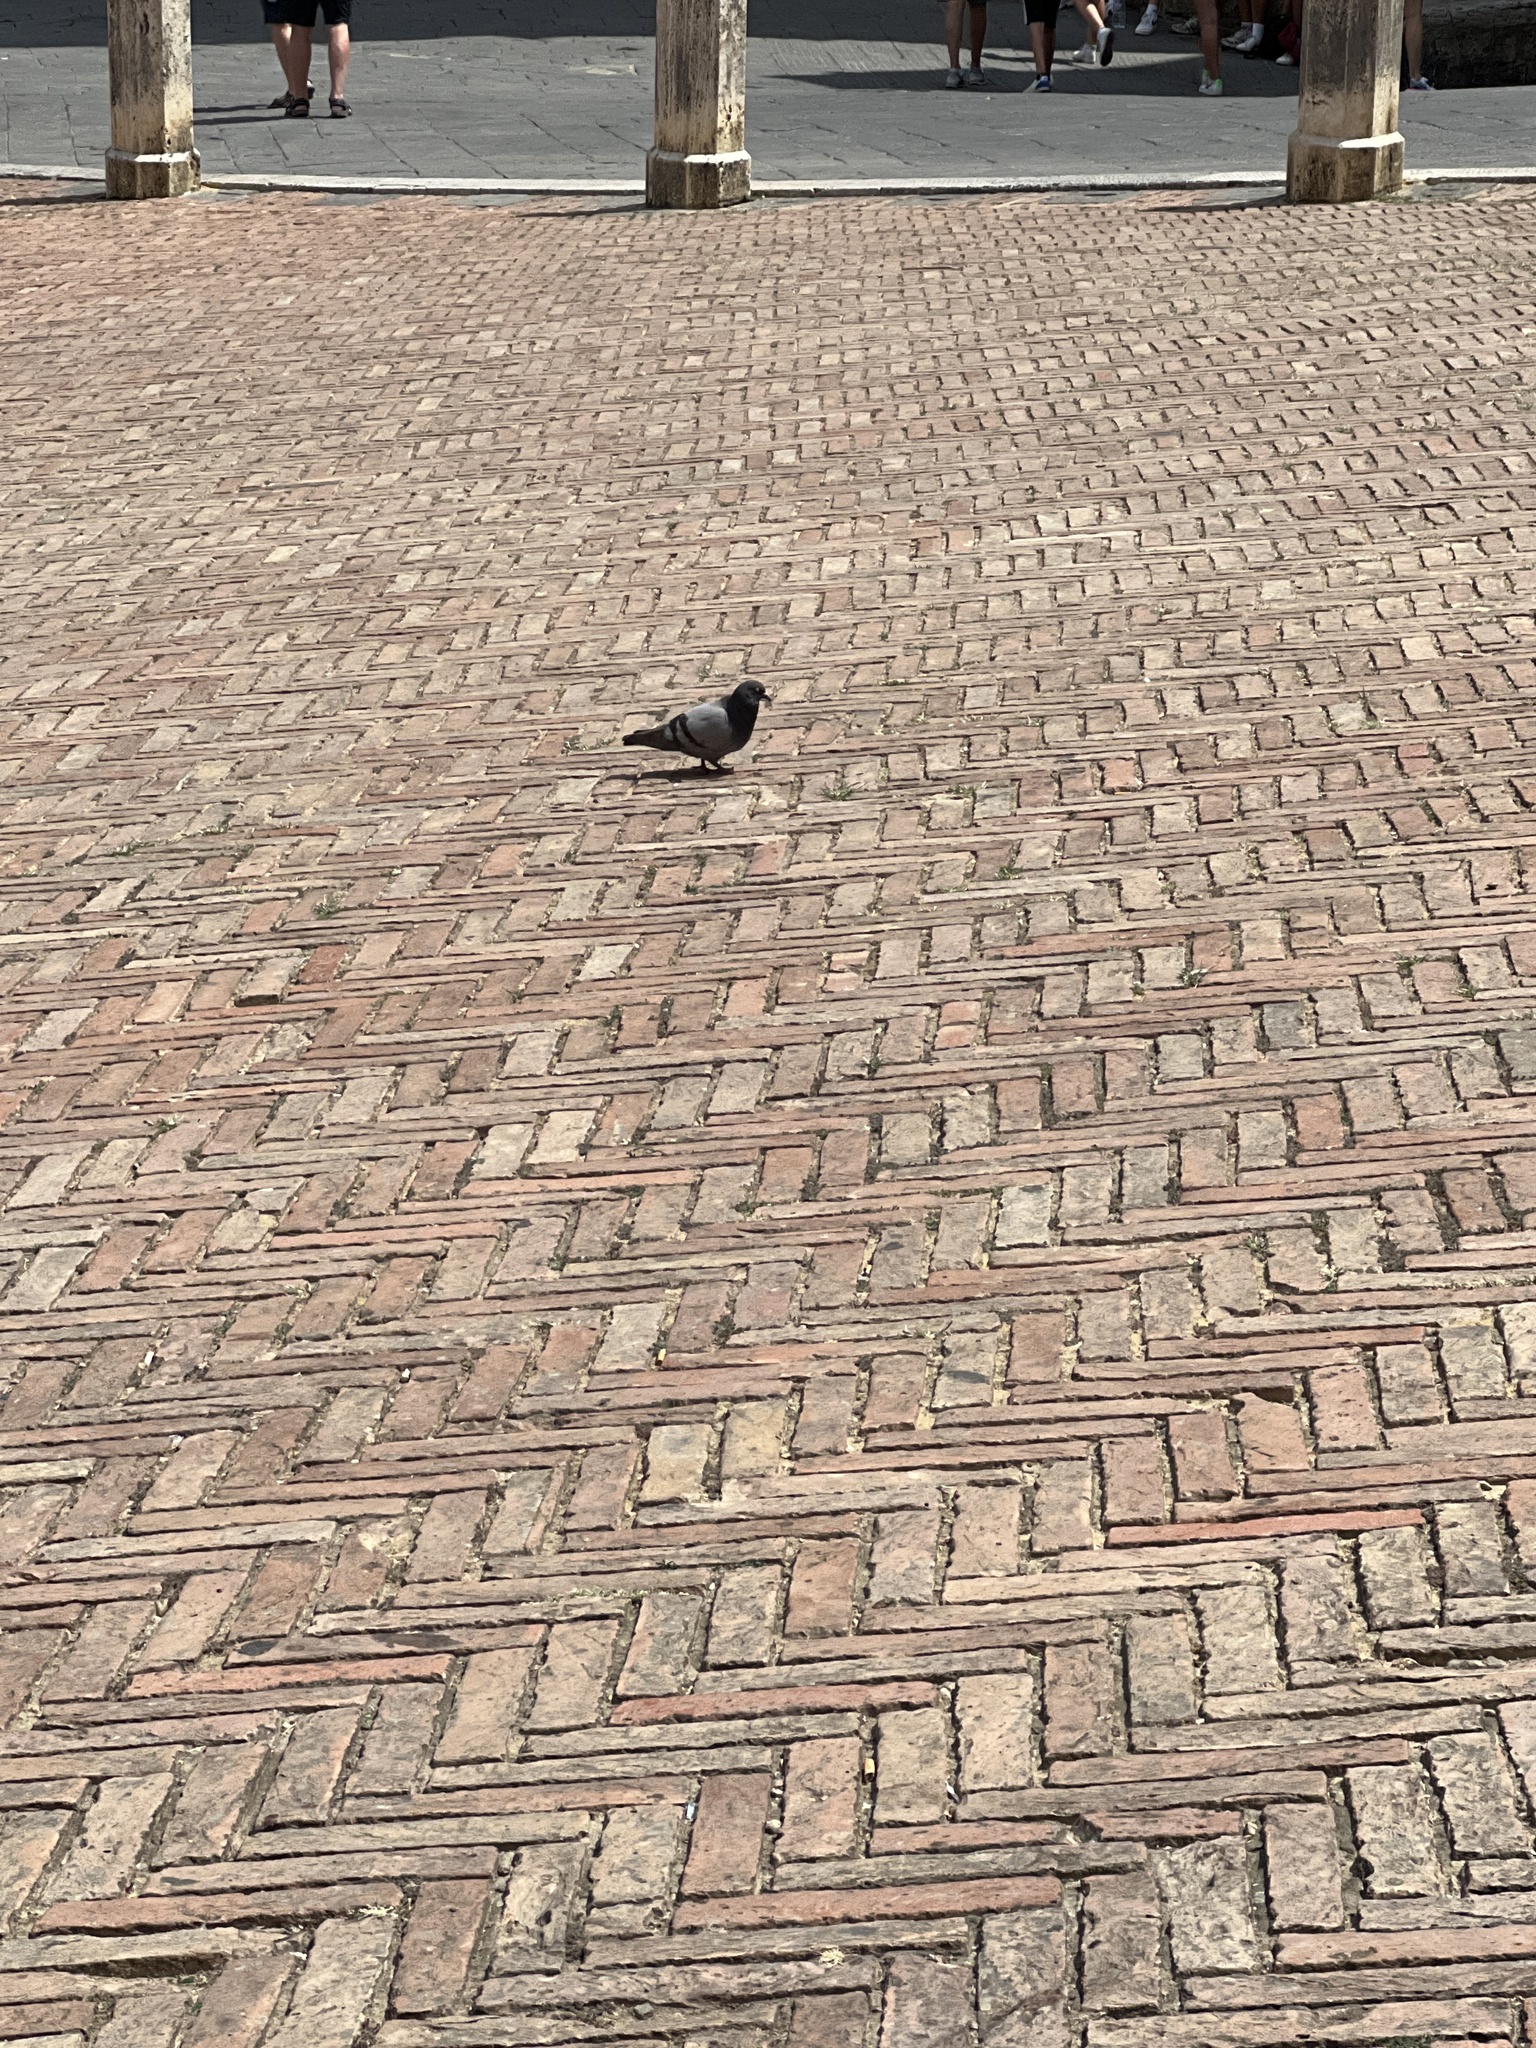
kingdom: Animalia
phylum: Chordata
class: Aves
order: Columbiformes
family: Columbidae
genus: Columba
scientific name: Columba livia
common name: Rock pigeon
